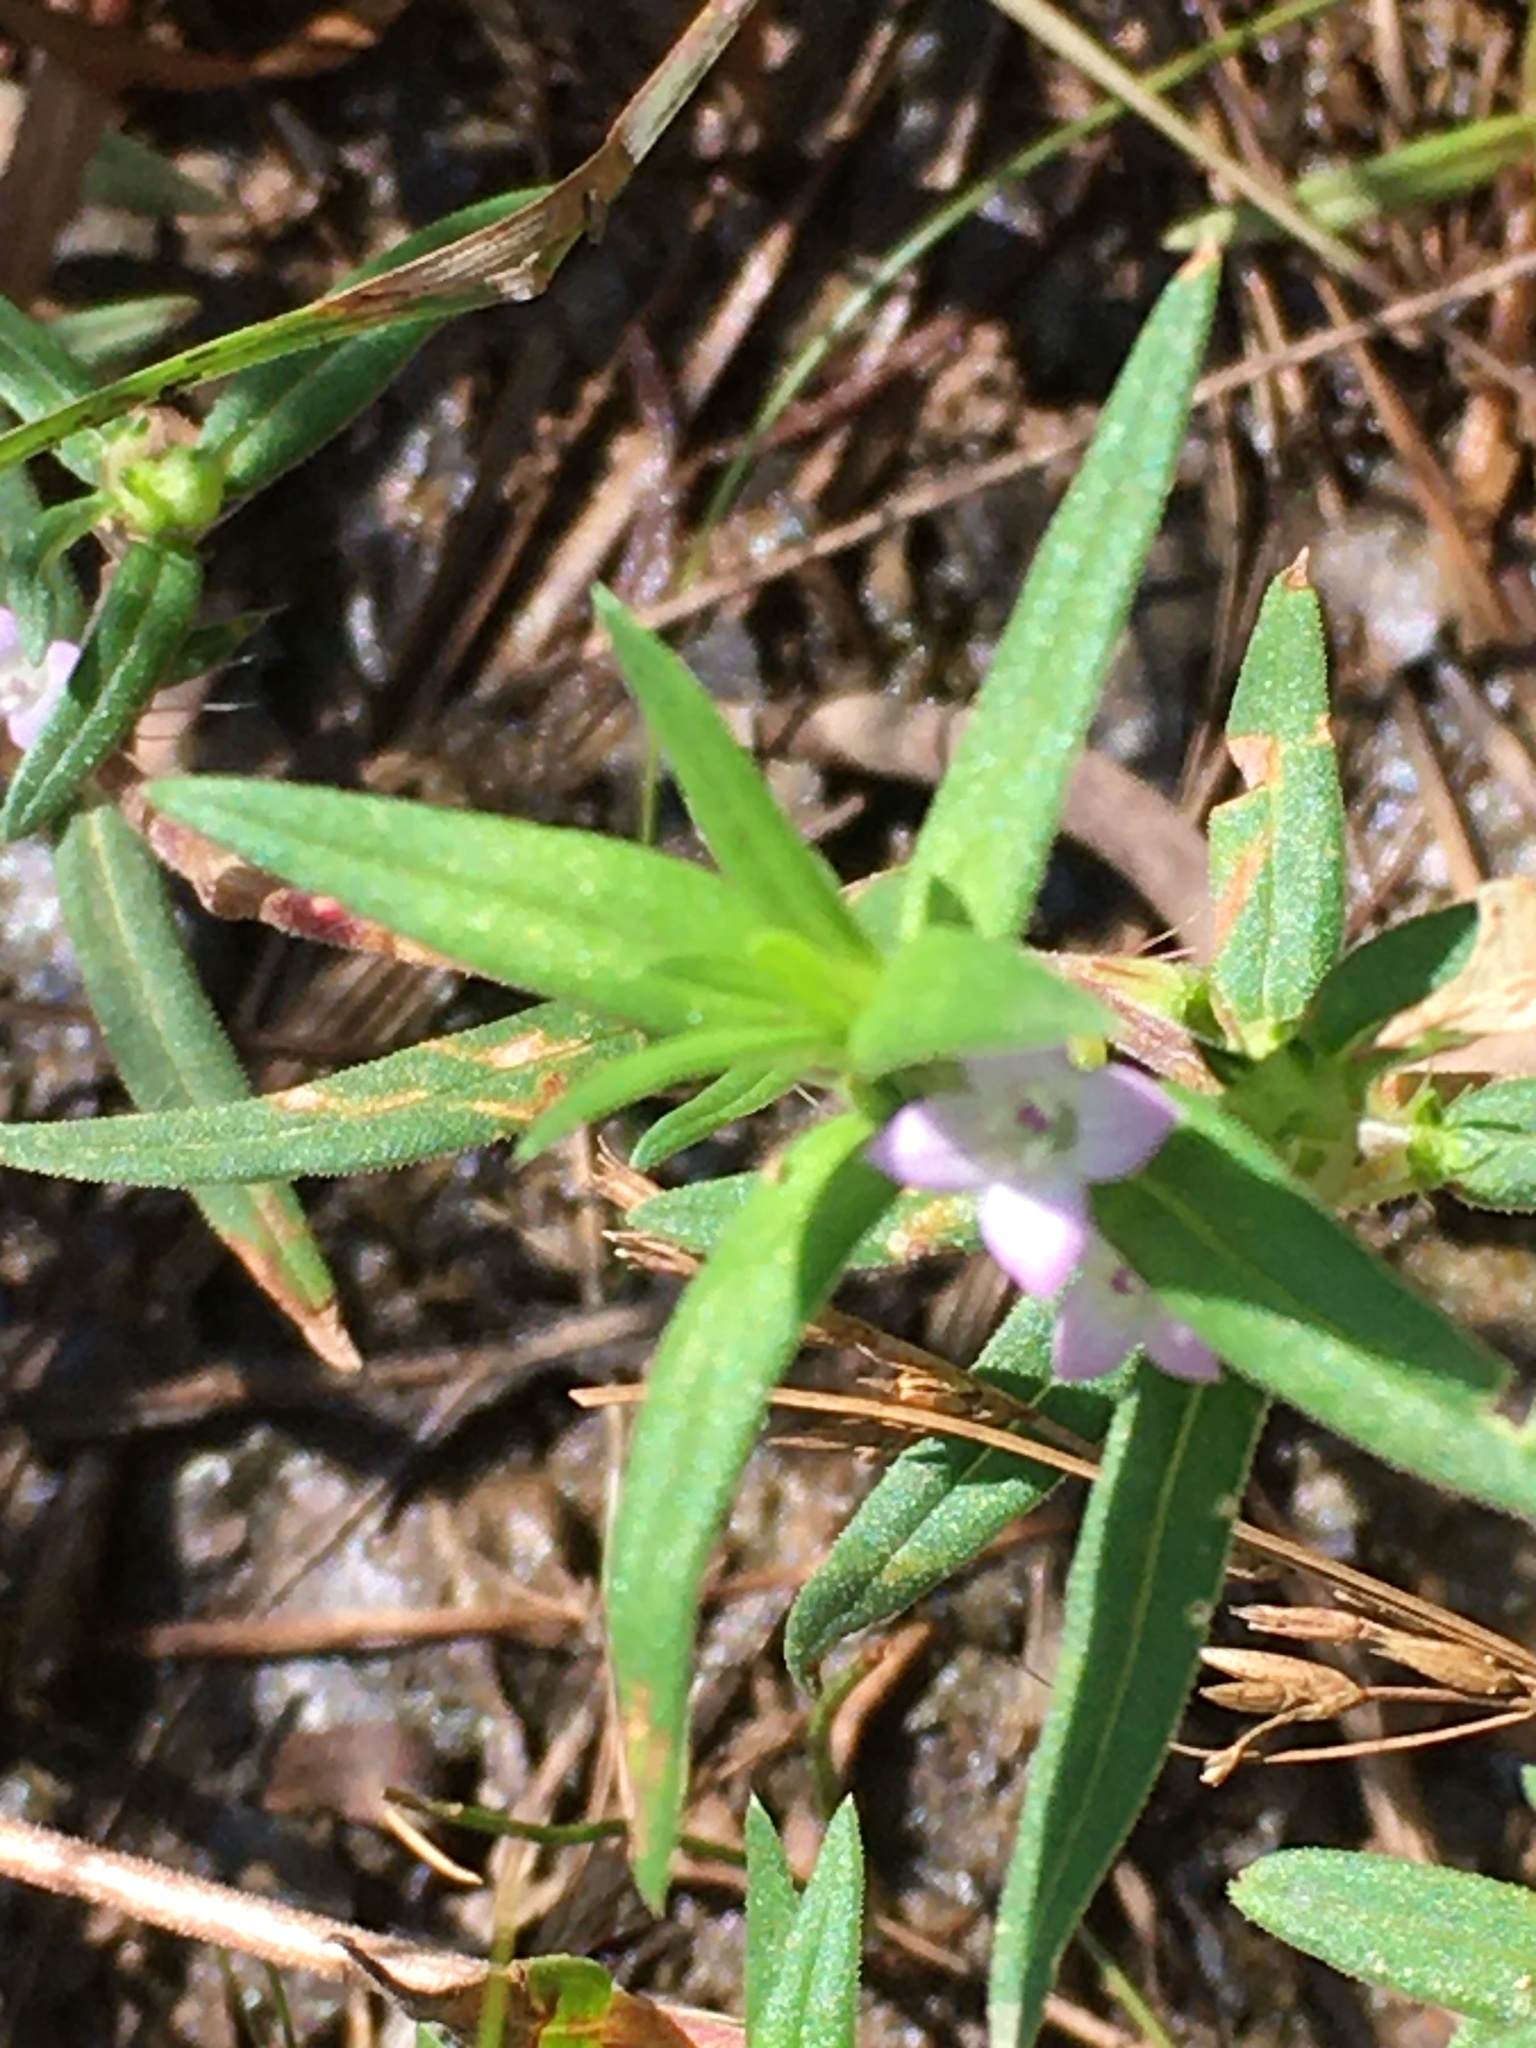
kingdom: Plantae
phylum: Tracheophyta
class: Magnoliopsida
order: Gentianales
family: Rubiaceae
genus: Hexasepalum
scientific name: Hexasepalum teres
